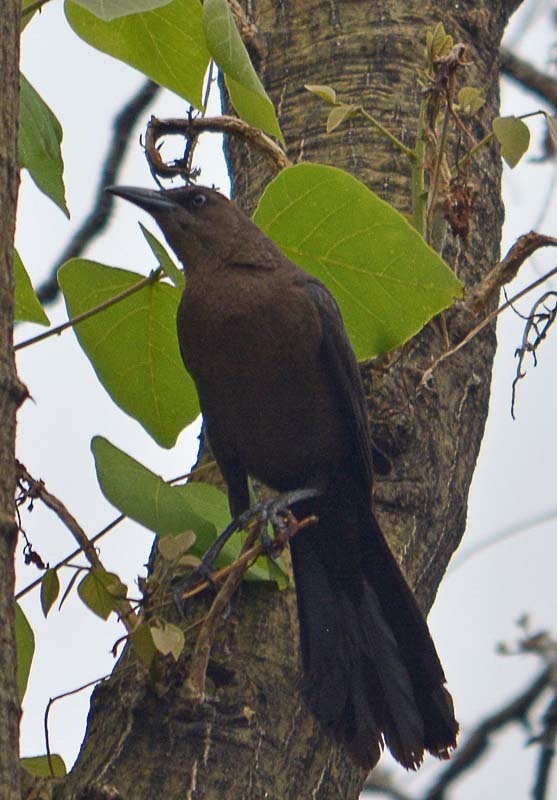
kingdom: Animalia
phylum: Chordata
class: Aves
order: Passeriformes
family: Icteridae
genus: Quiscalus
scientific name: Quiscalus mexicanus
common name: Great-tailed grackle
